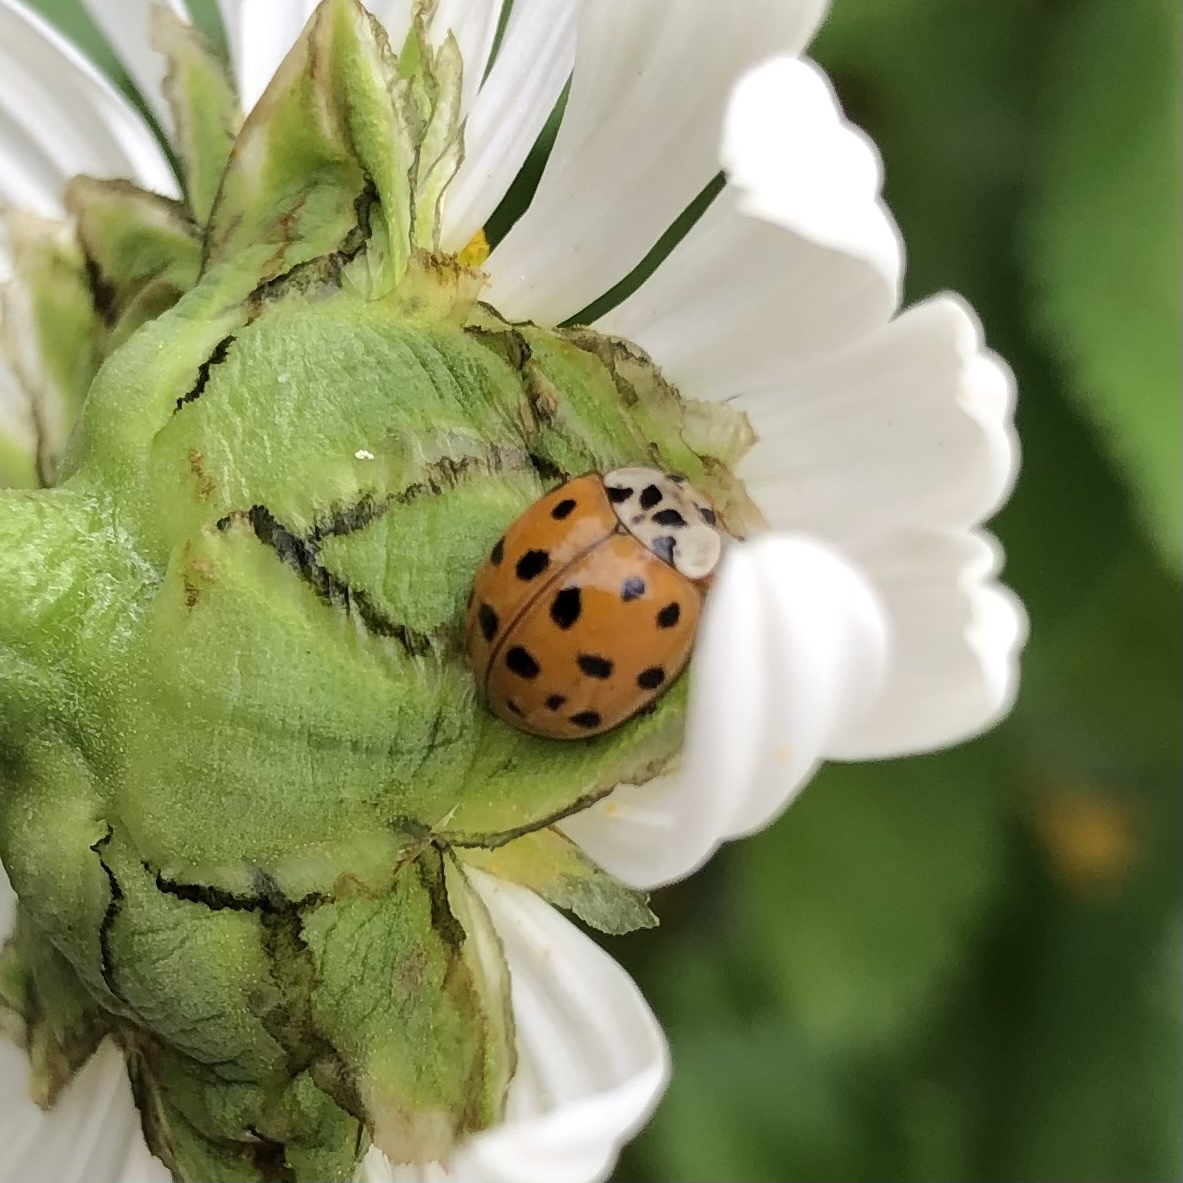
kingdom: Animalia
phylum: Arthropoda
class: Insecta
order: Coleoptera
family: Coccinellidae
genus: Harmonia
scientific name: Harmonia axyridis
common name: Harlequin ladybird
